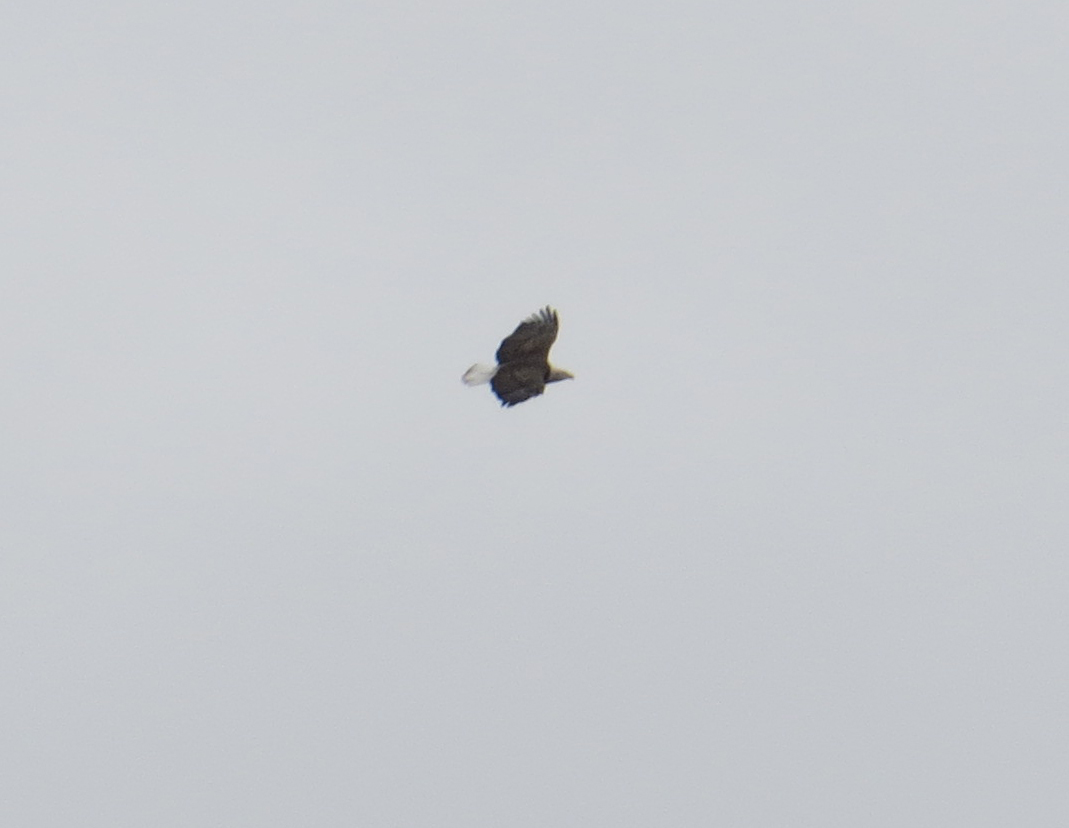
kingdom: Animalia
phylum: Chordata
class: Aves
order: Accipitriformes
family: Accipitridae
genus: Haliaeetus
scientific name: Haliaeetus leucocephalus
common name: Bald eagle
